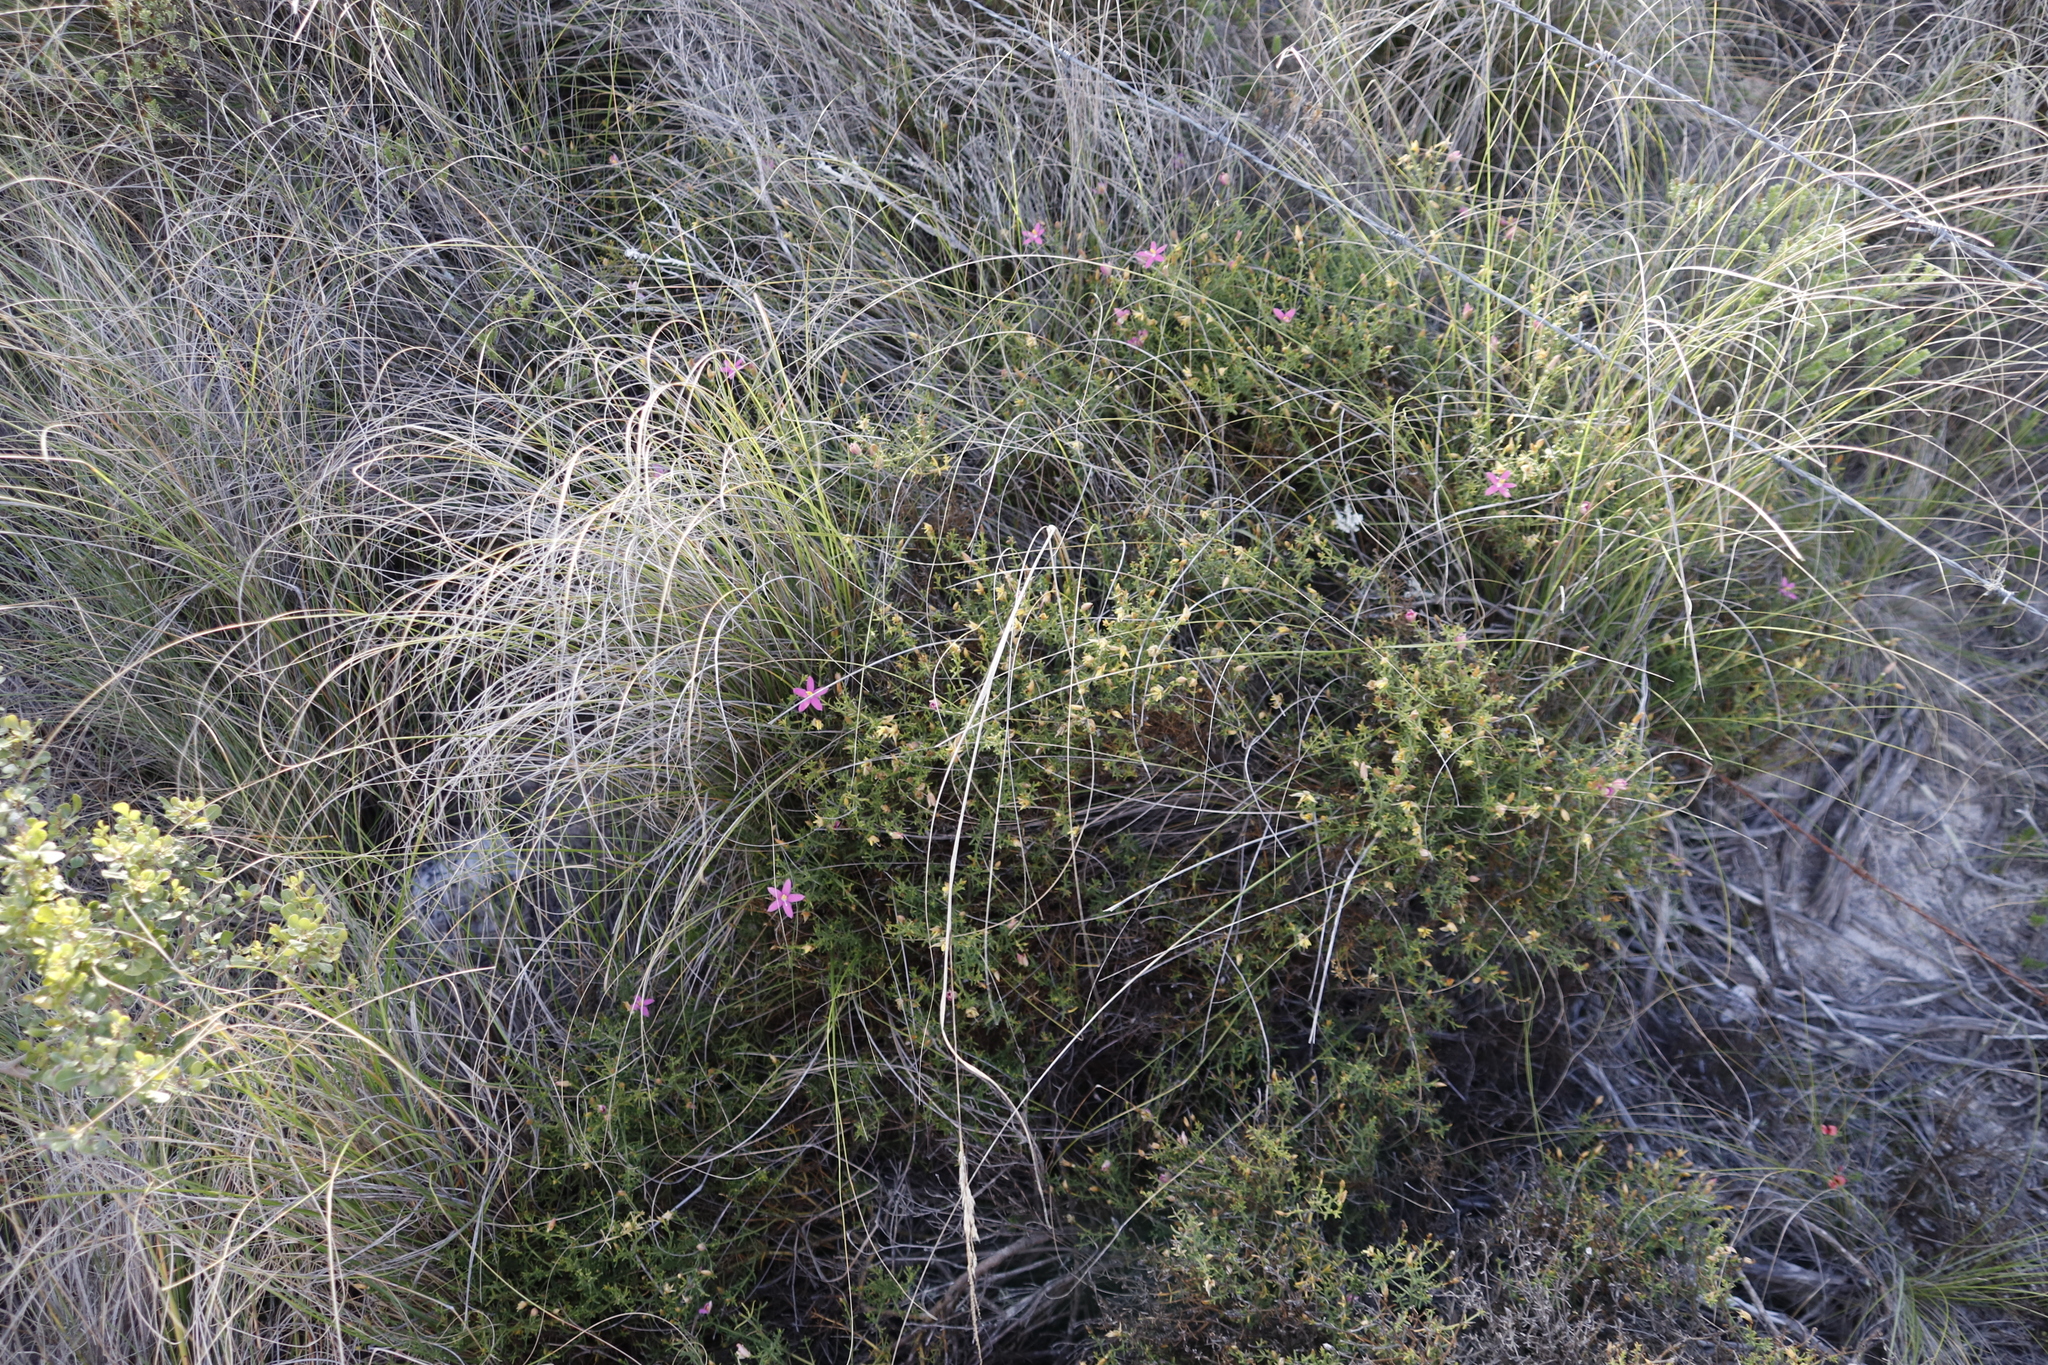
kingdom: Plantae
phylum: Tracheophyta
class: Magnoliopsida
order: Gentianales
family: Gentianaceae
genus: Chironia
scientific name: Chironia baccifera
